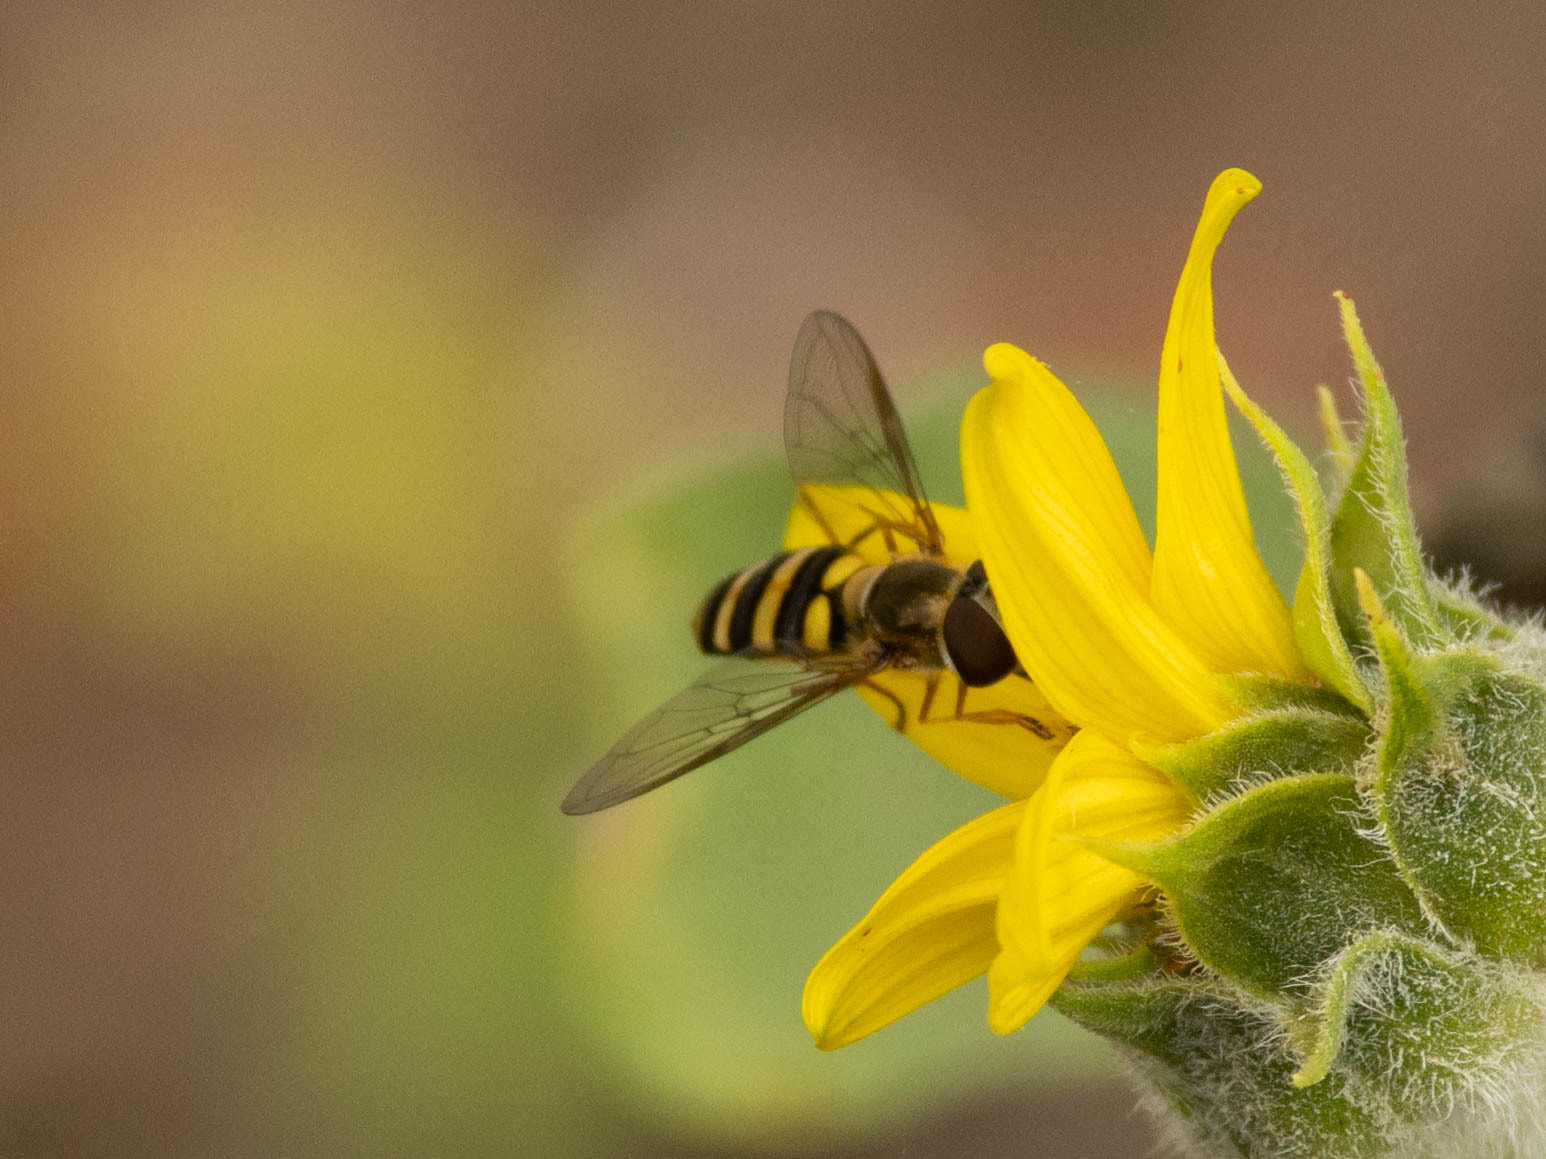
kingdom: Animalia
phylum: Arthropoda
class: Insecta
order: Diptera
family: Syrphidae
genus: Eupeodes
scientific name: Eupeodes
